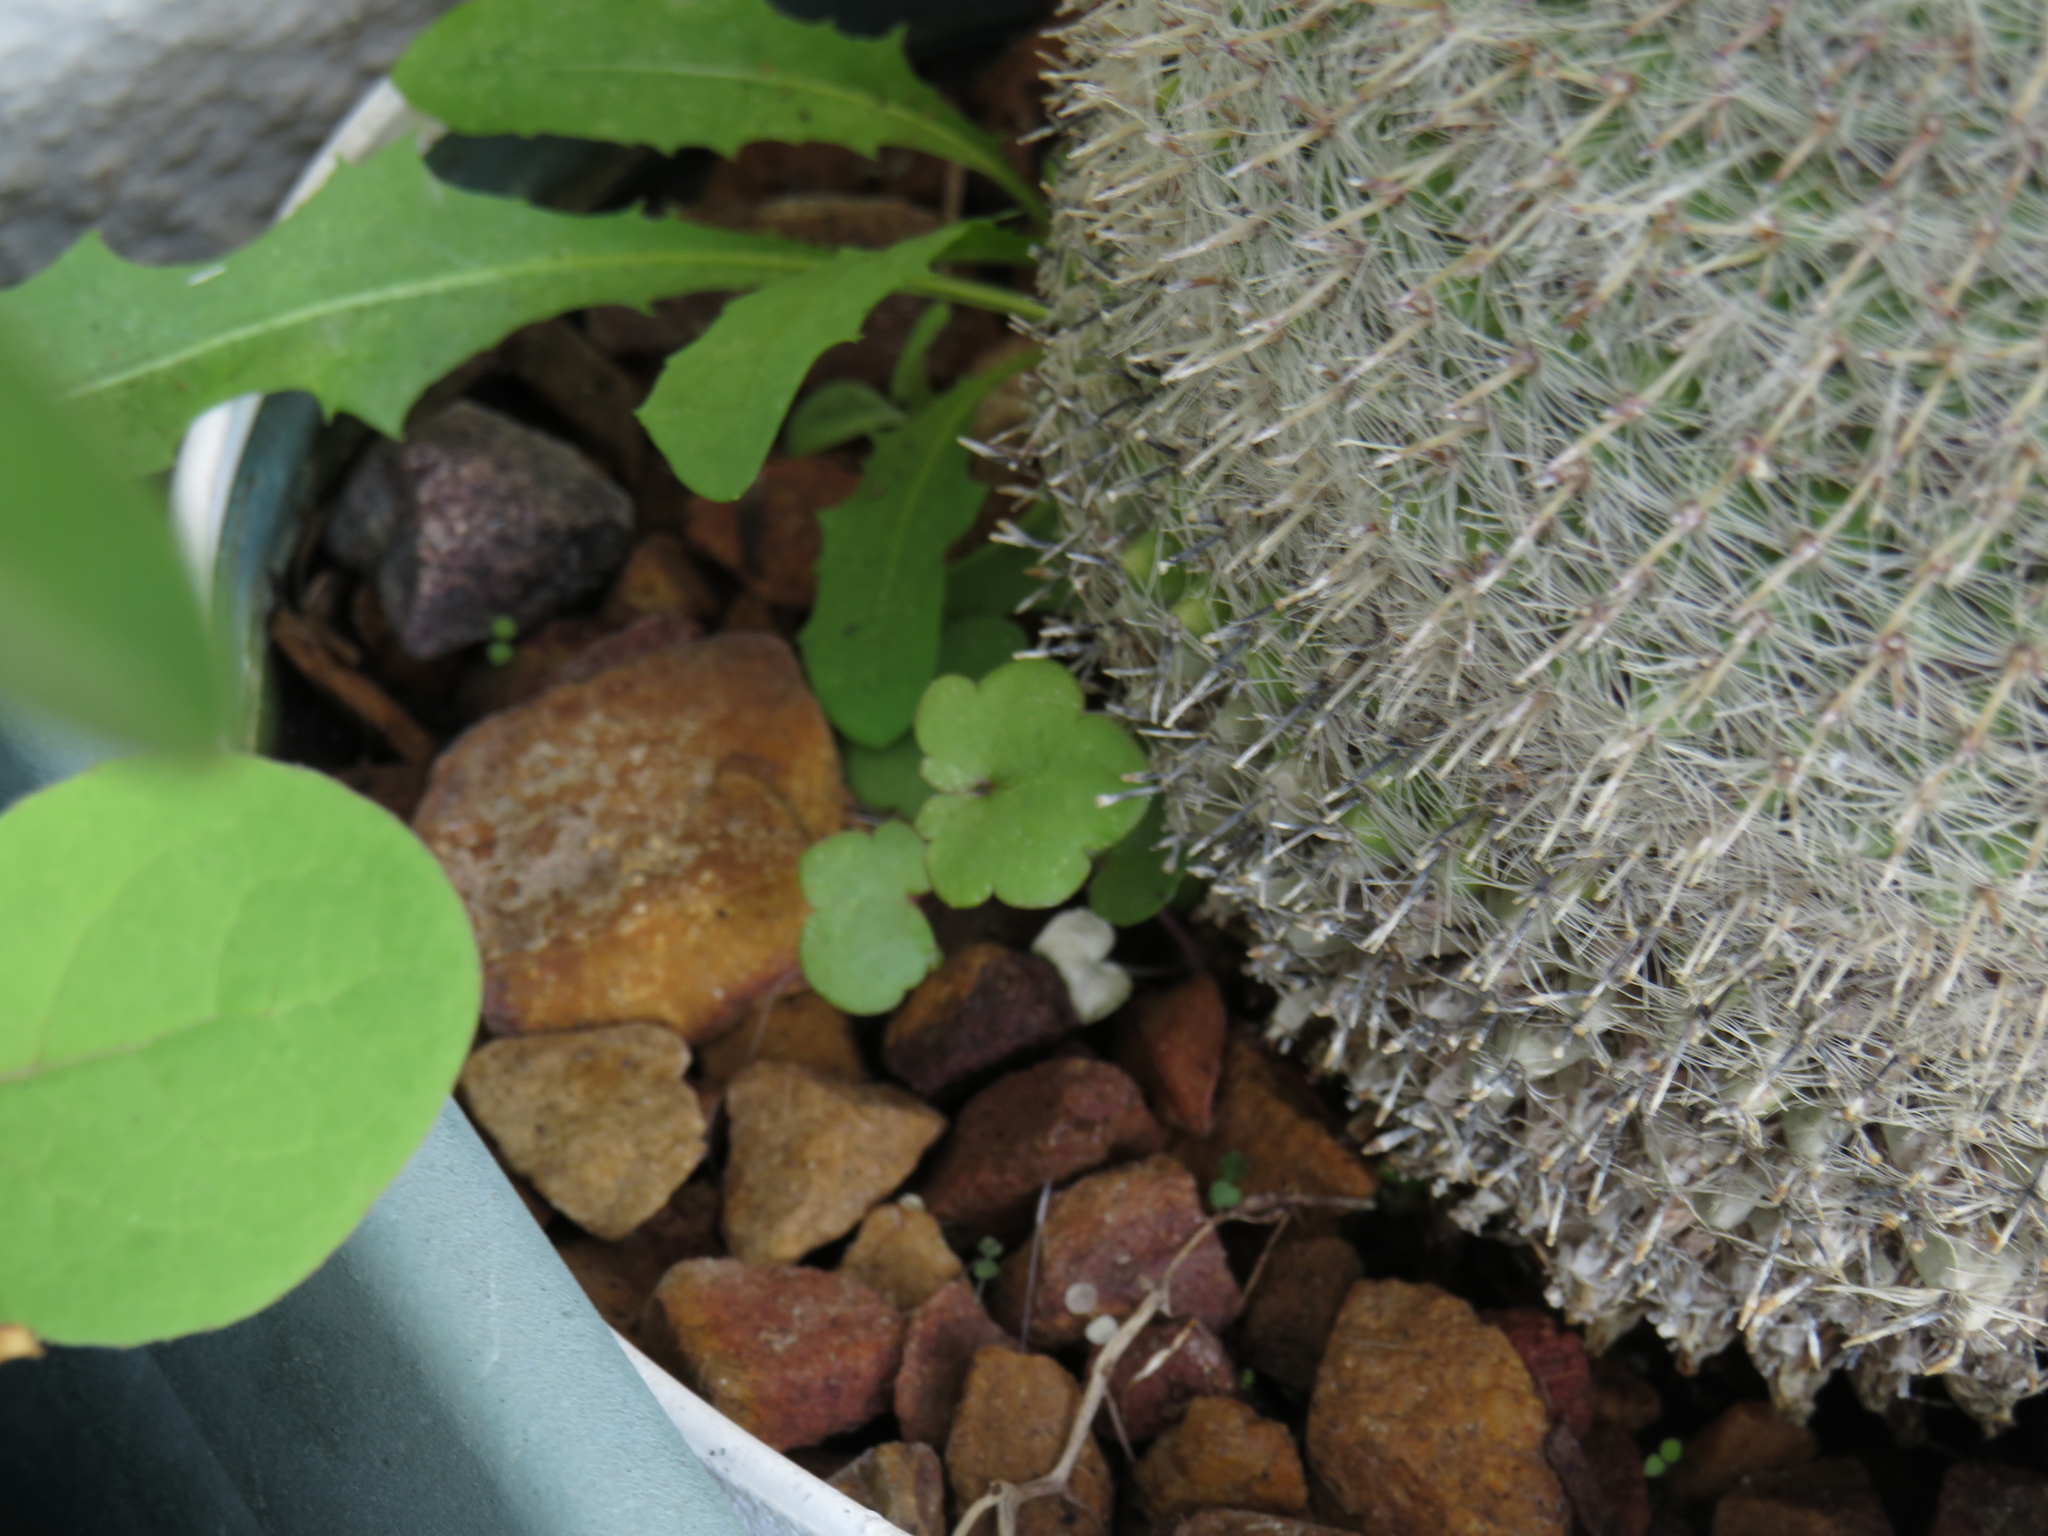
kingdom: Plantae
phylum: Tracheophyta
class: Magnoliopsida
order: Lamiales
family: Plantaginaceae
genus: Cymbalaria
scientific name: Cymbalaria muralis
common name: Ivy-leaved toadflax
